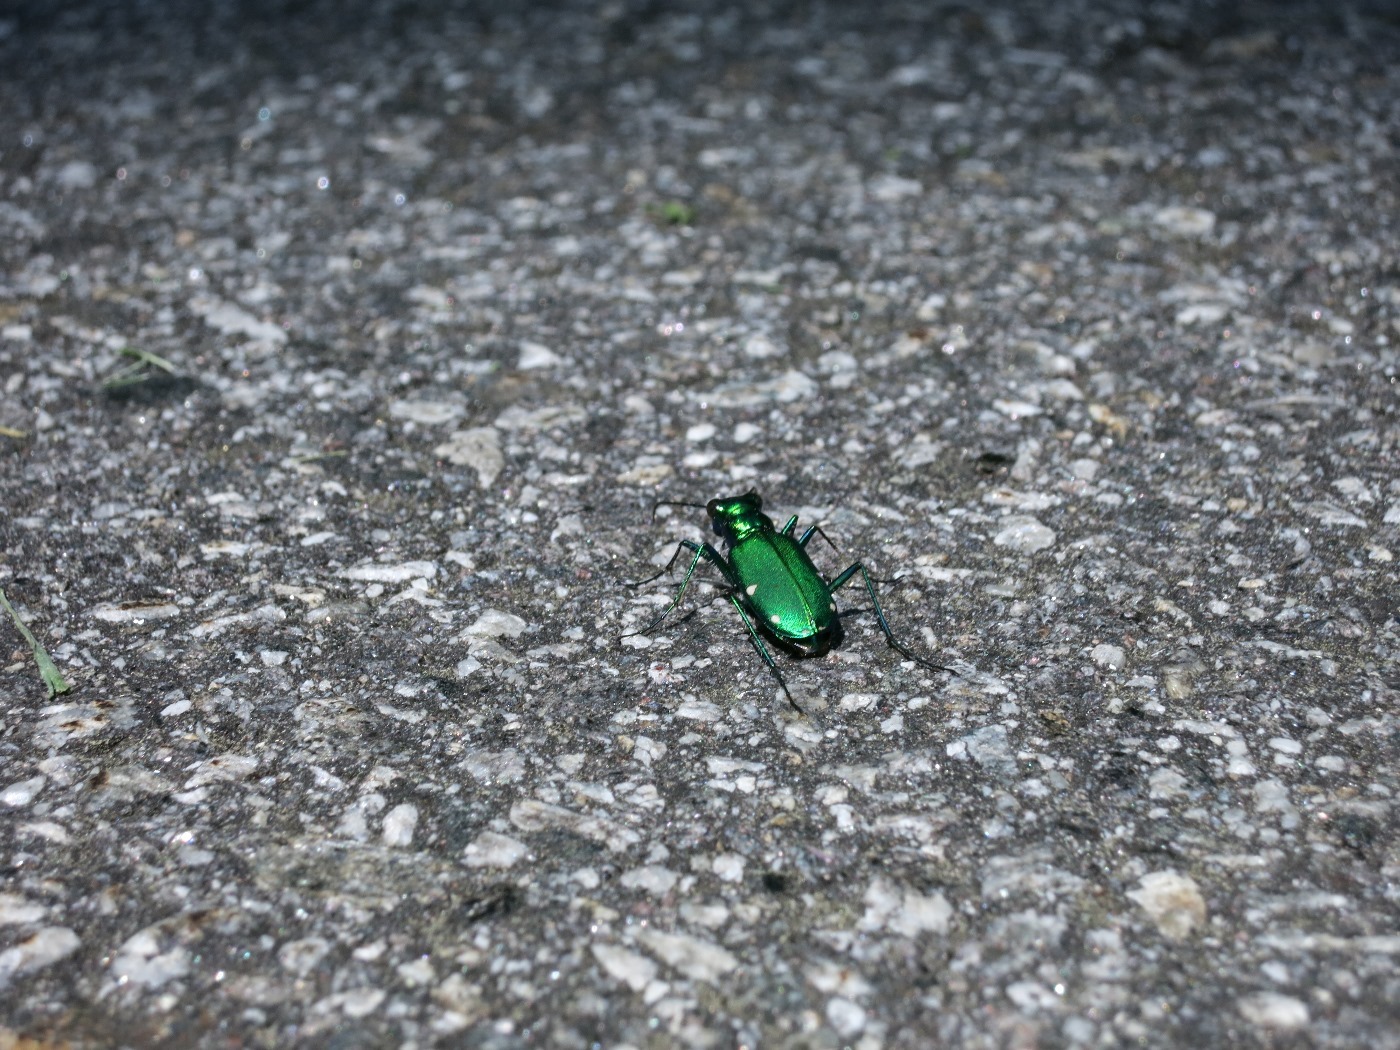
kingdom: Animalia
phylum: Arthropoda
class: Insecta
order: Coleoptera
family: Carabidae
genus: Cicindela
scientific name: Cicindela sexguttata
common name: Six-spotted tiger beetle
